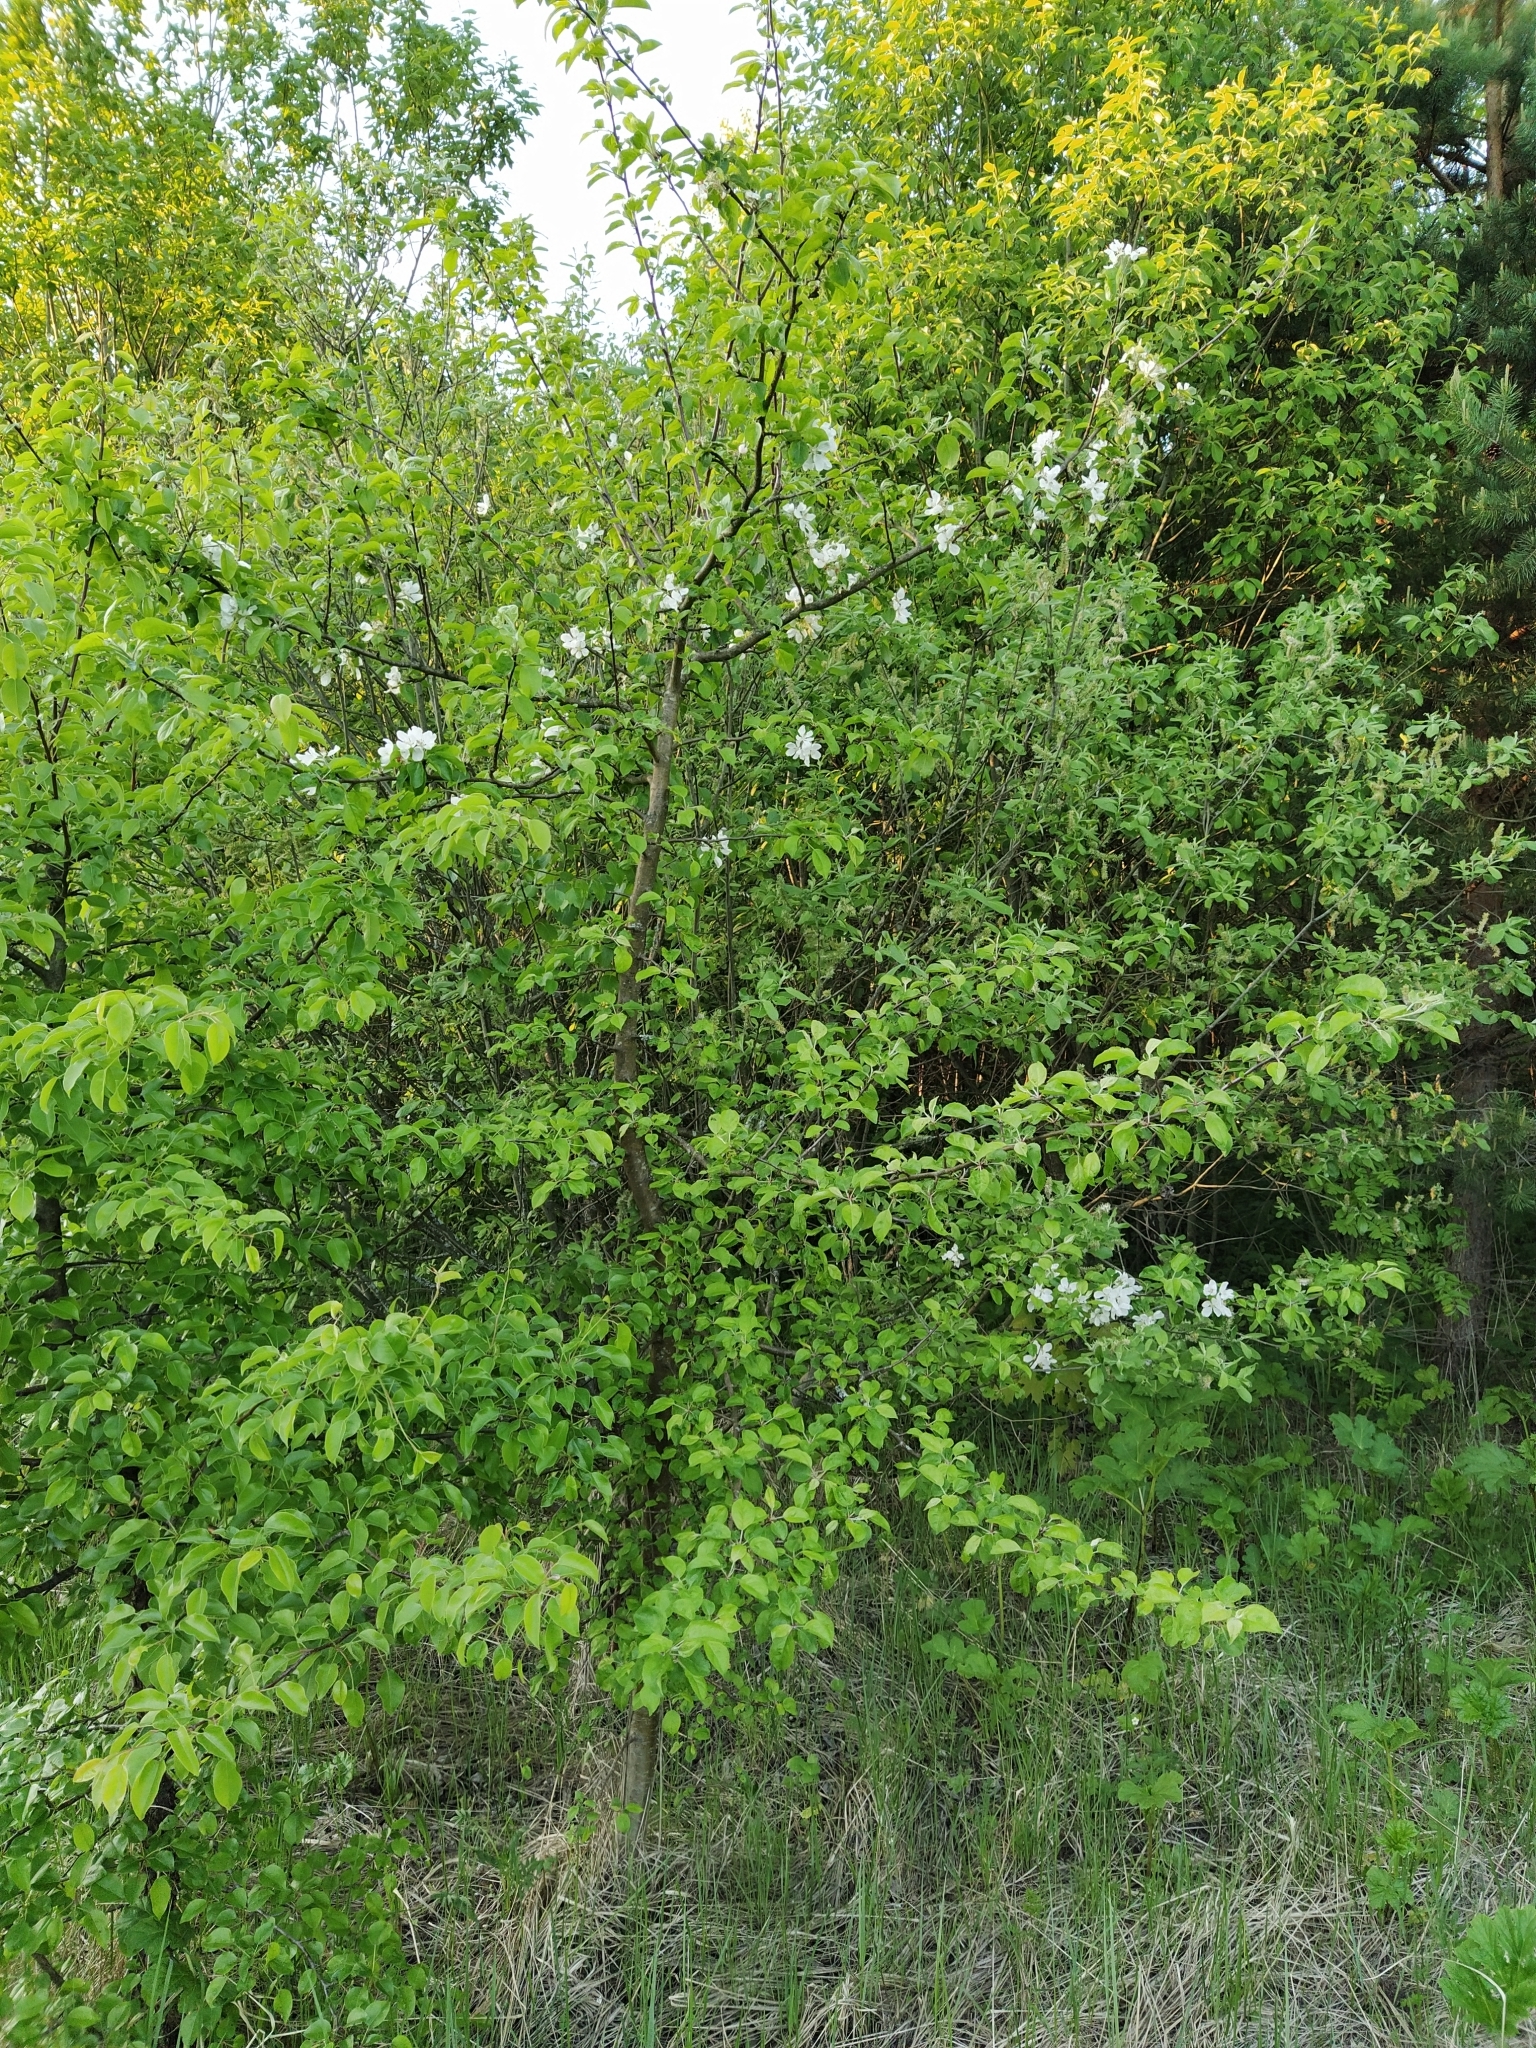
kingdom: Plantae
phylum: Tracheophyta
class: Magnoliopsida
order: Rosales
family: Rosaceae
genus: Malus
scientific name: Malus domestica
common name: Apple
